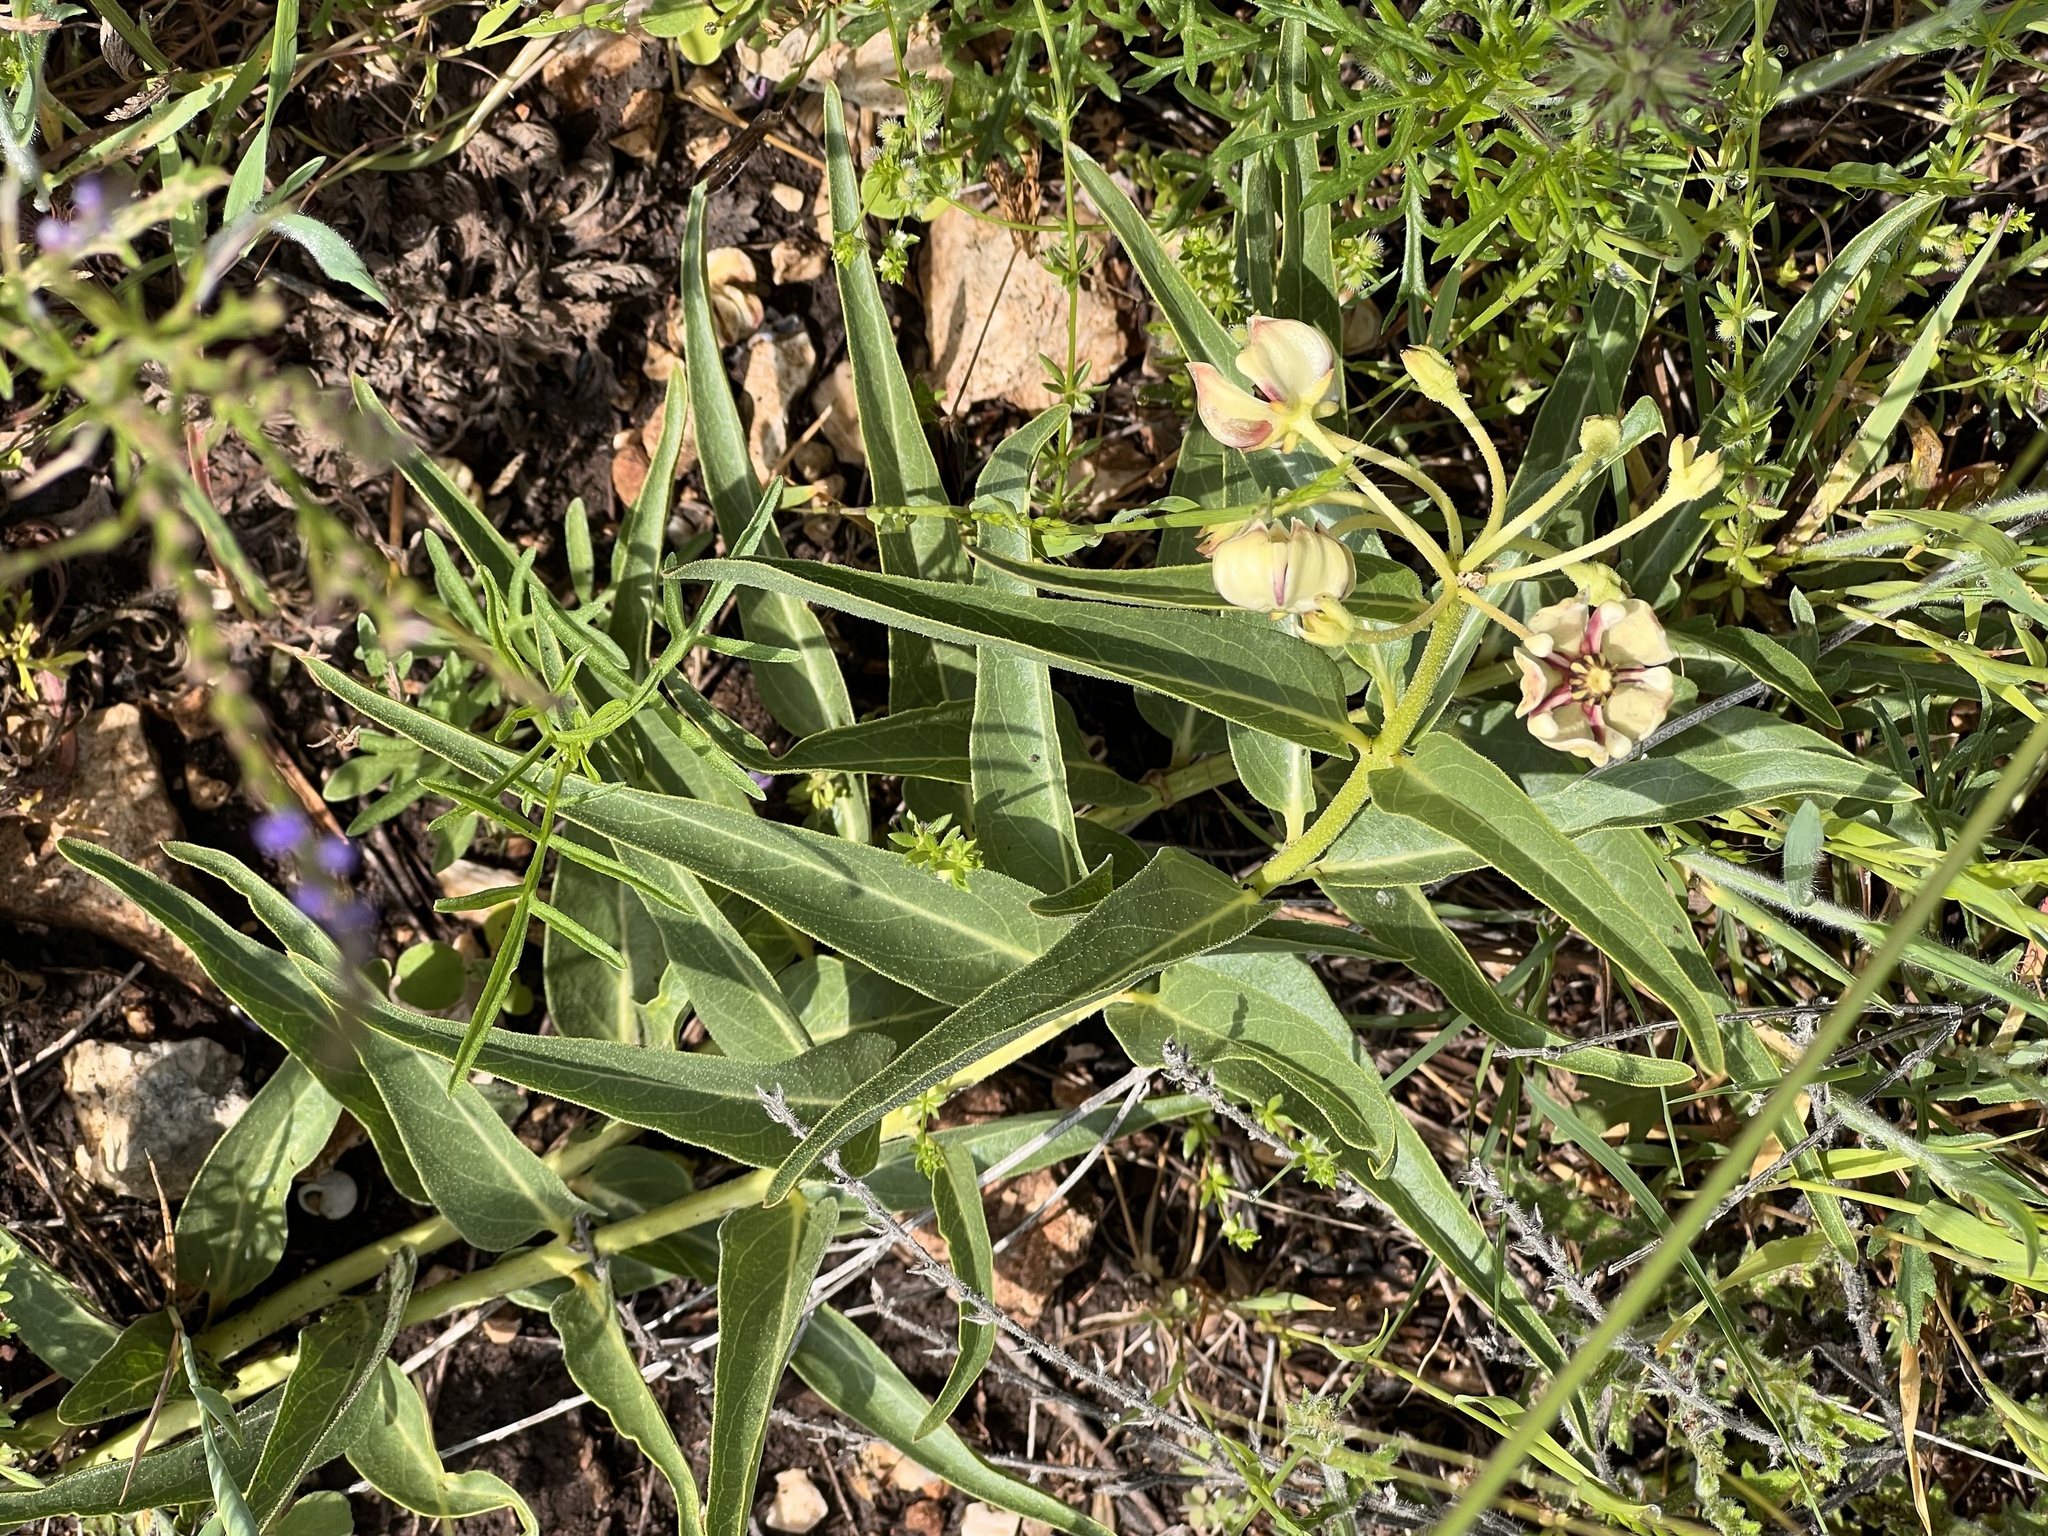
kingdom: Plantae
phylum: Tracheophyta
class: Magnoliopsida
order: Gentianales
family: Apocynaceae
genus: Asclepias
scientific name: Asclepias asperula
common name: Antelope horns
